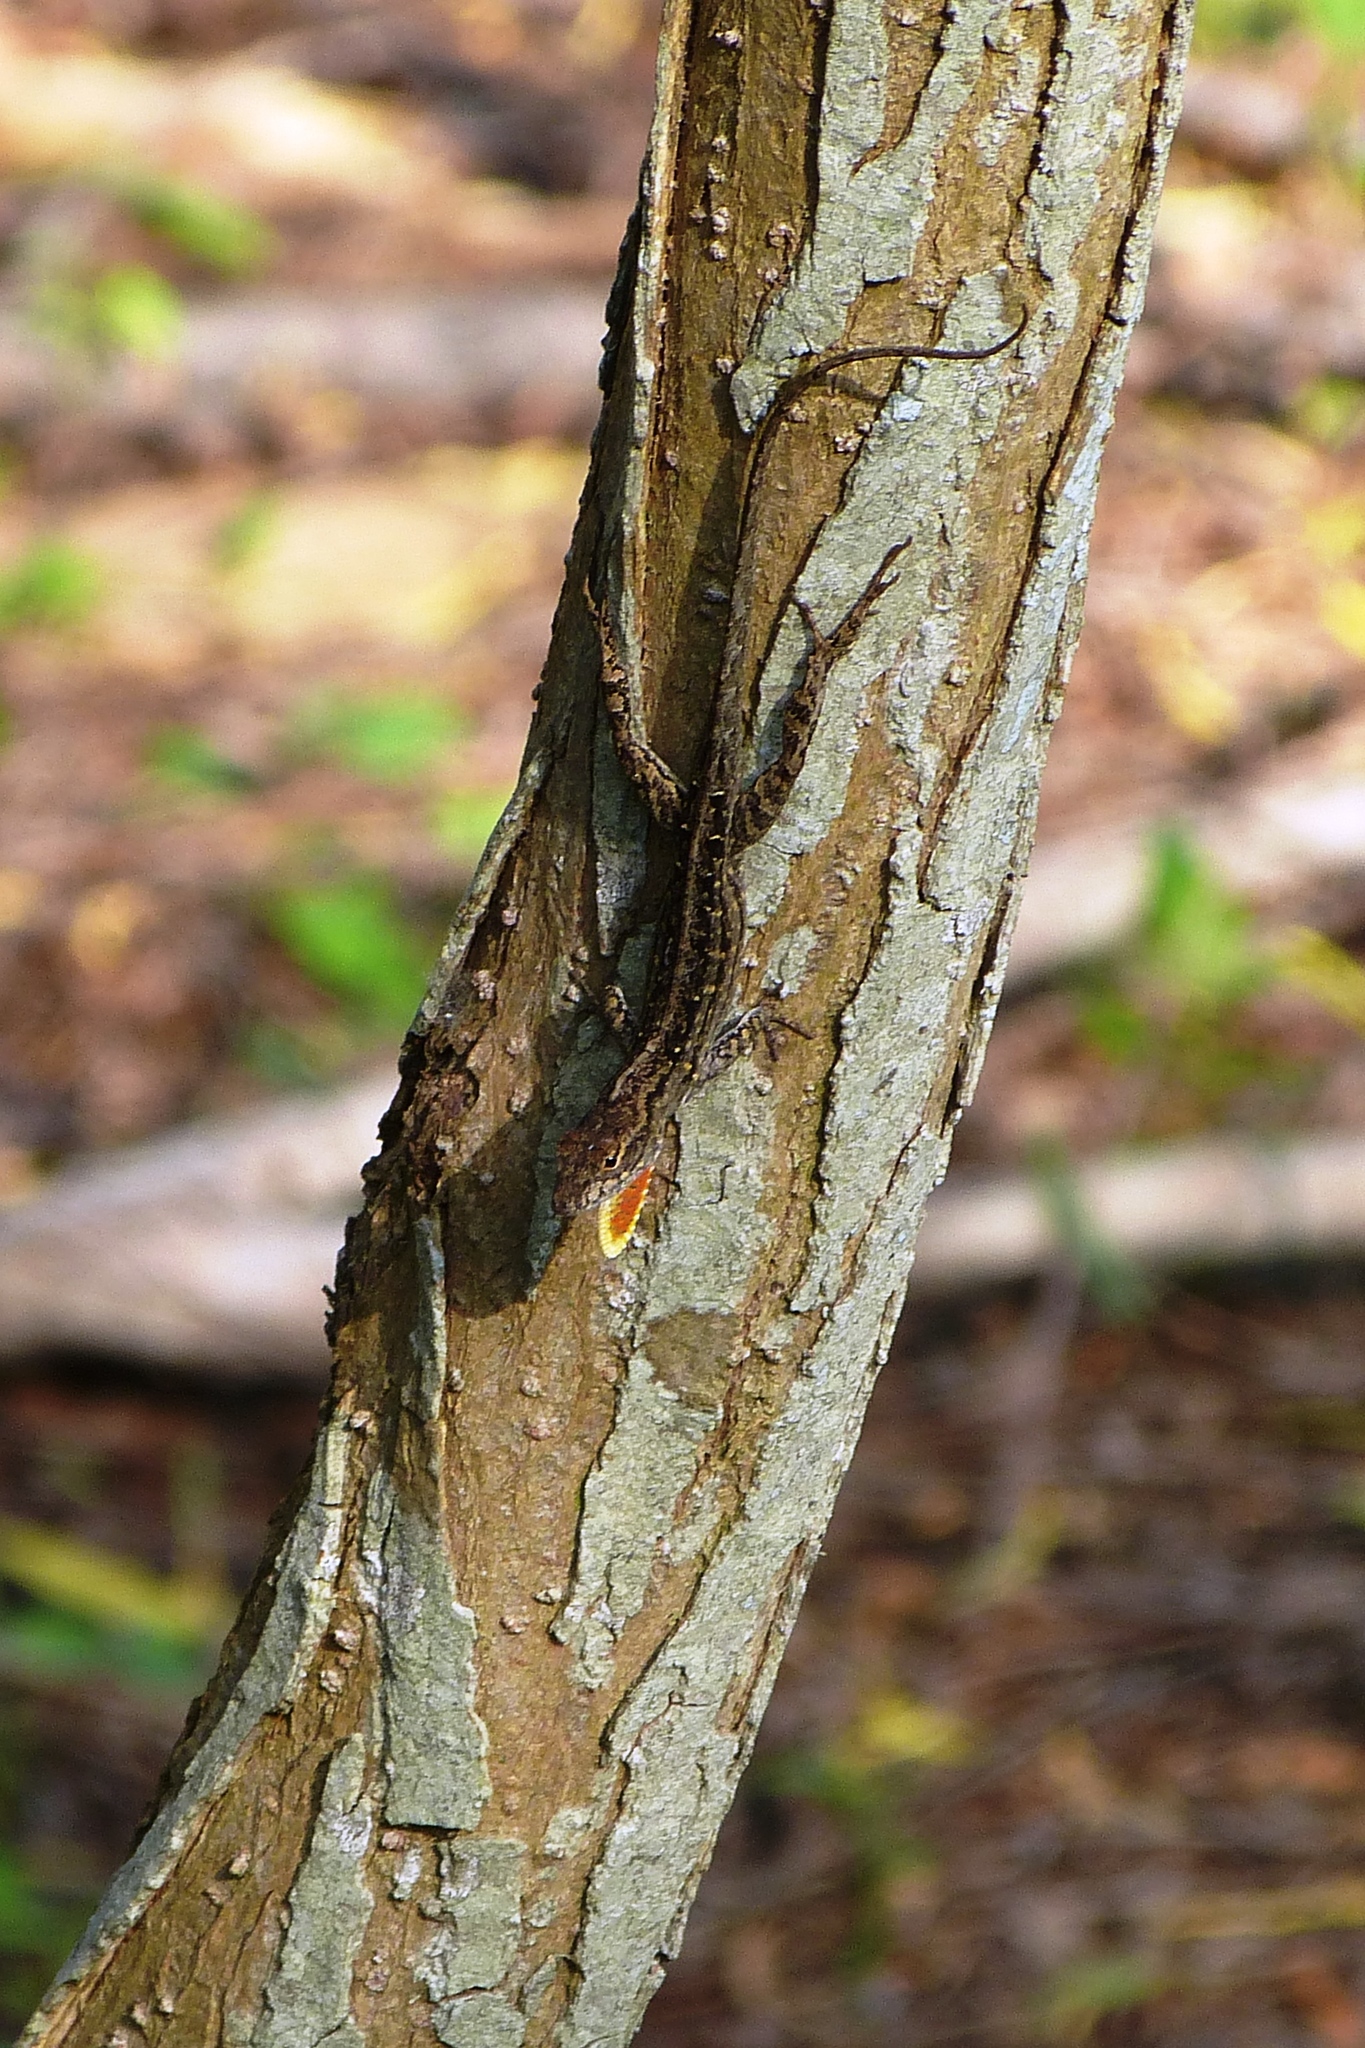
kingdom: Animalia
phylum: Chordata
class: Squamata
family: Dactyloidae
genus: Anolis
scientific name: Anolis sagrei
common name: Brown anole
